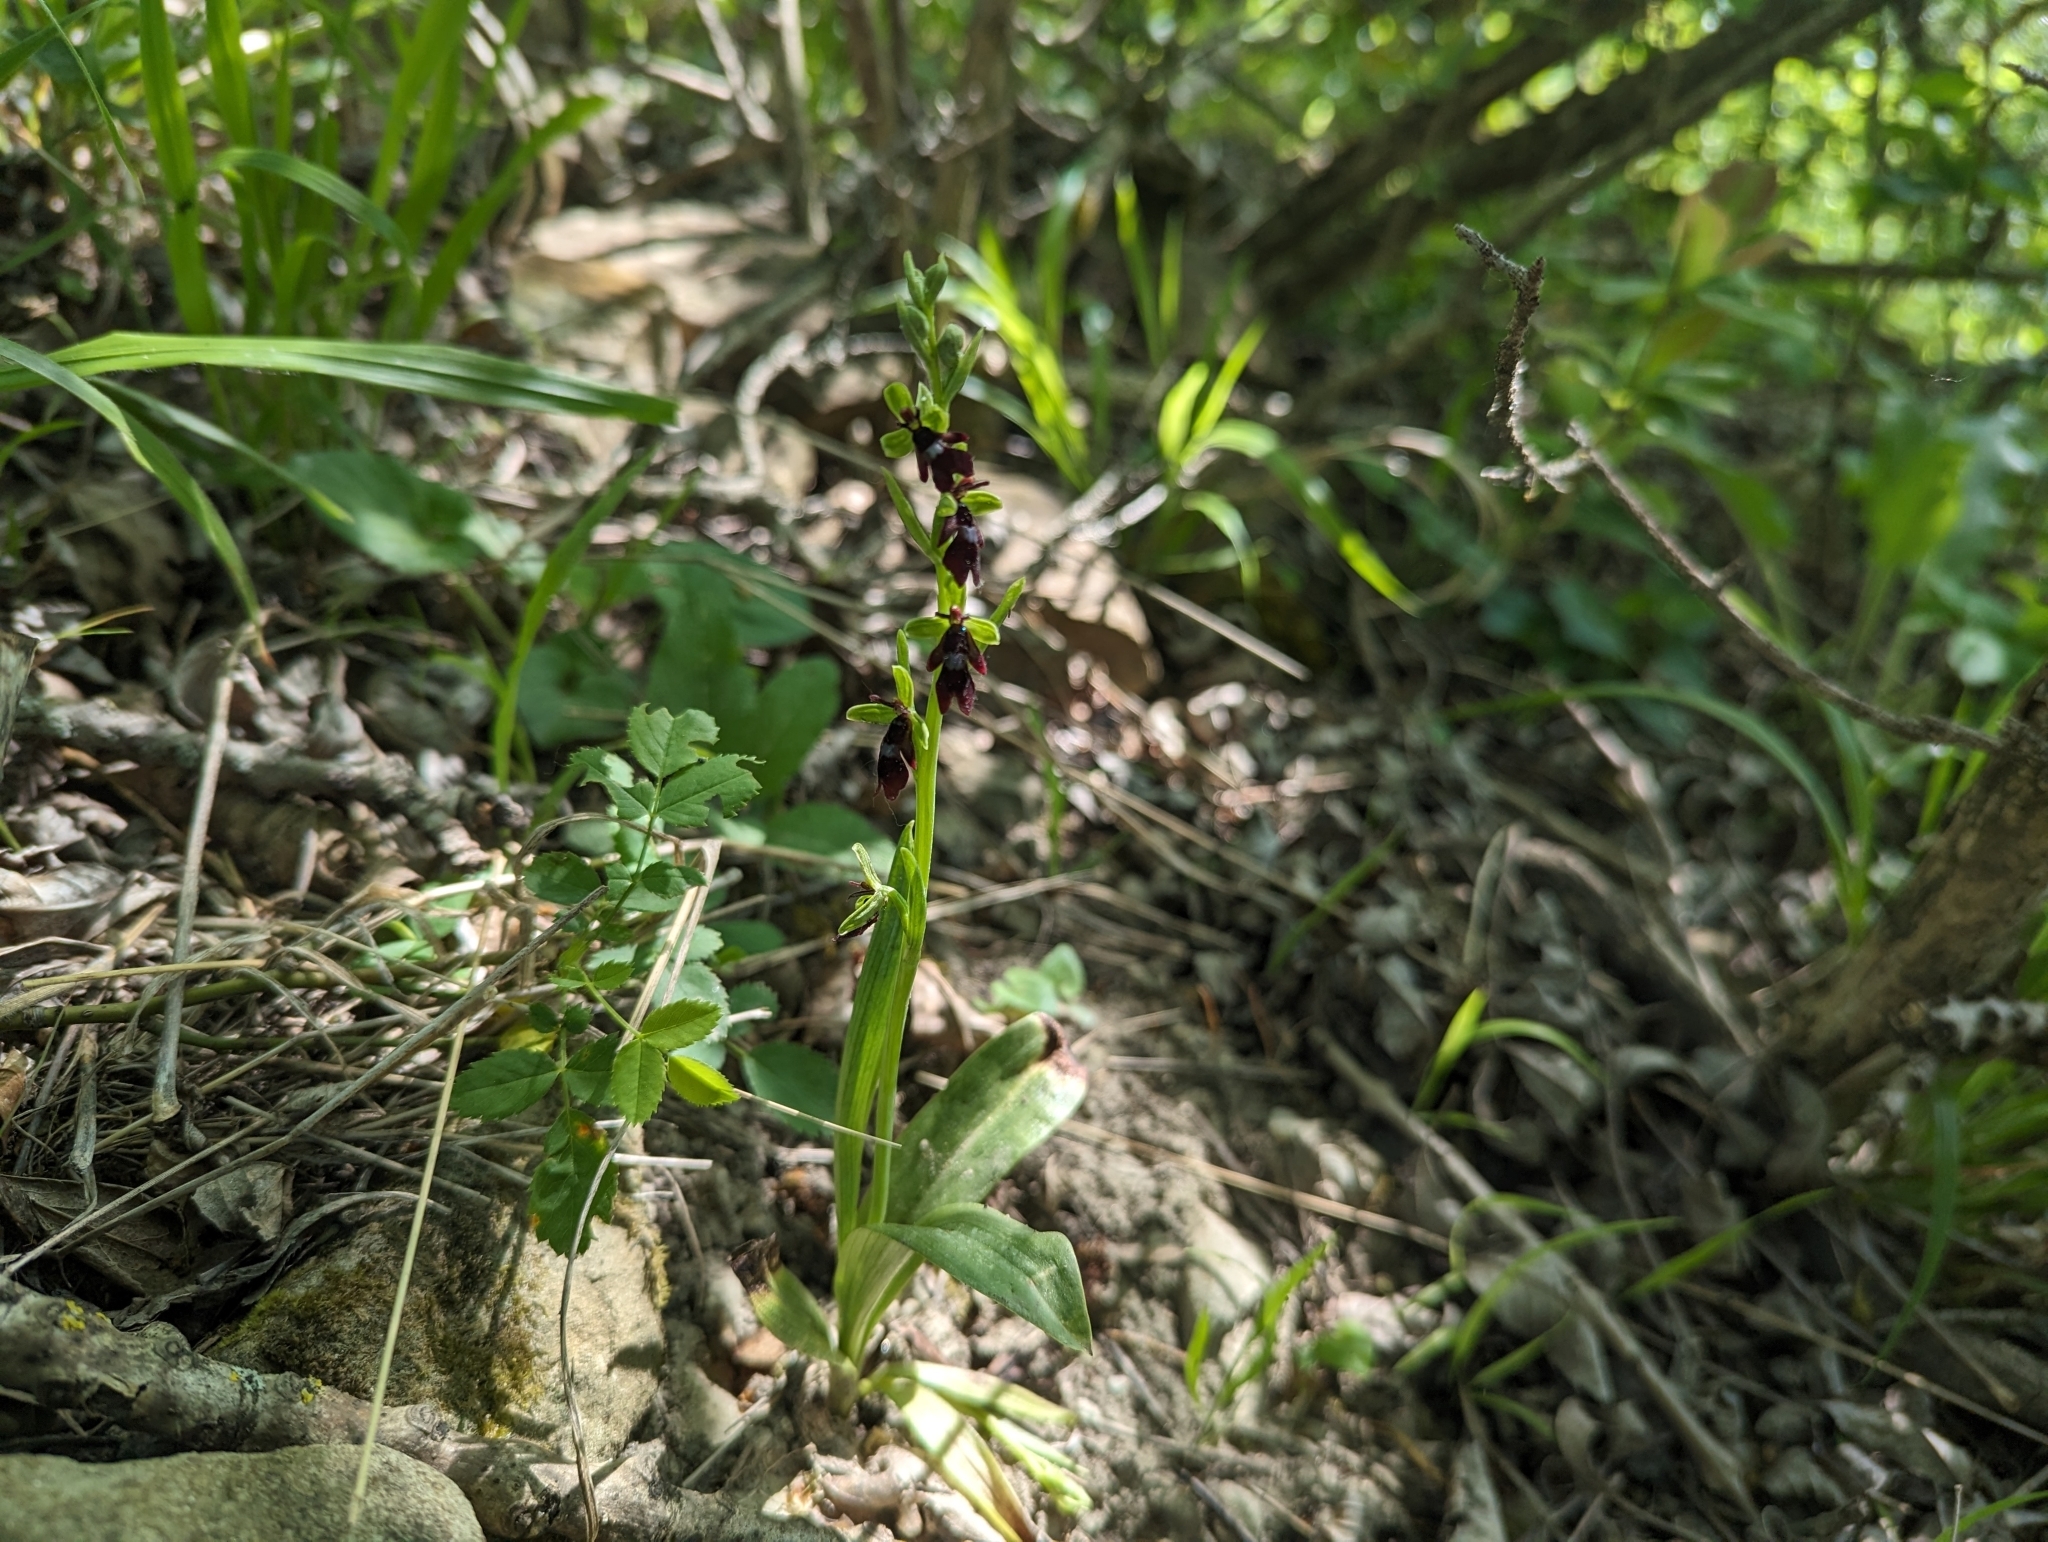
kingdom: Plantae
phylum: Tracheophyta
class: Liliopsida
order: Asparagales
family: Orchidaceae
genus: Ophrys
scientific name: Ophrys insectifera
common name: Fly orchid
